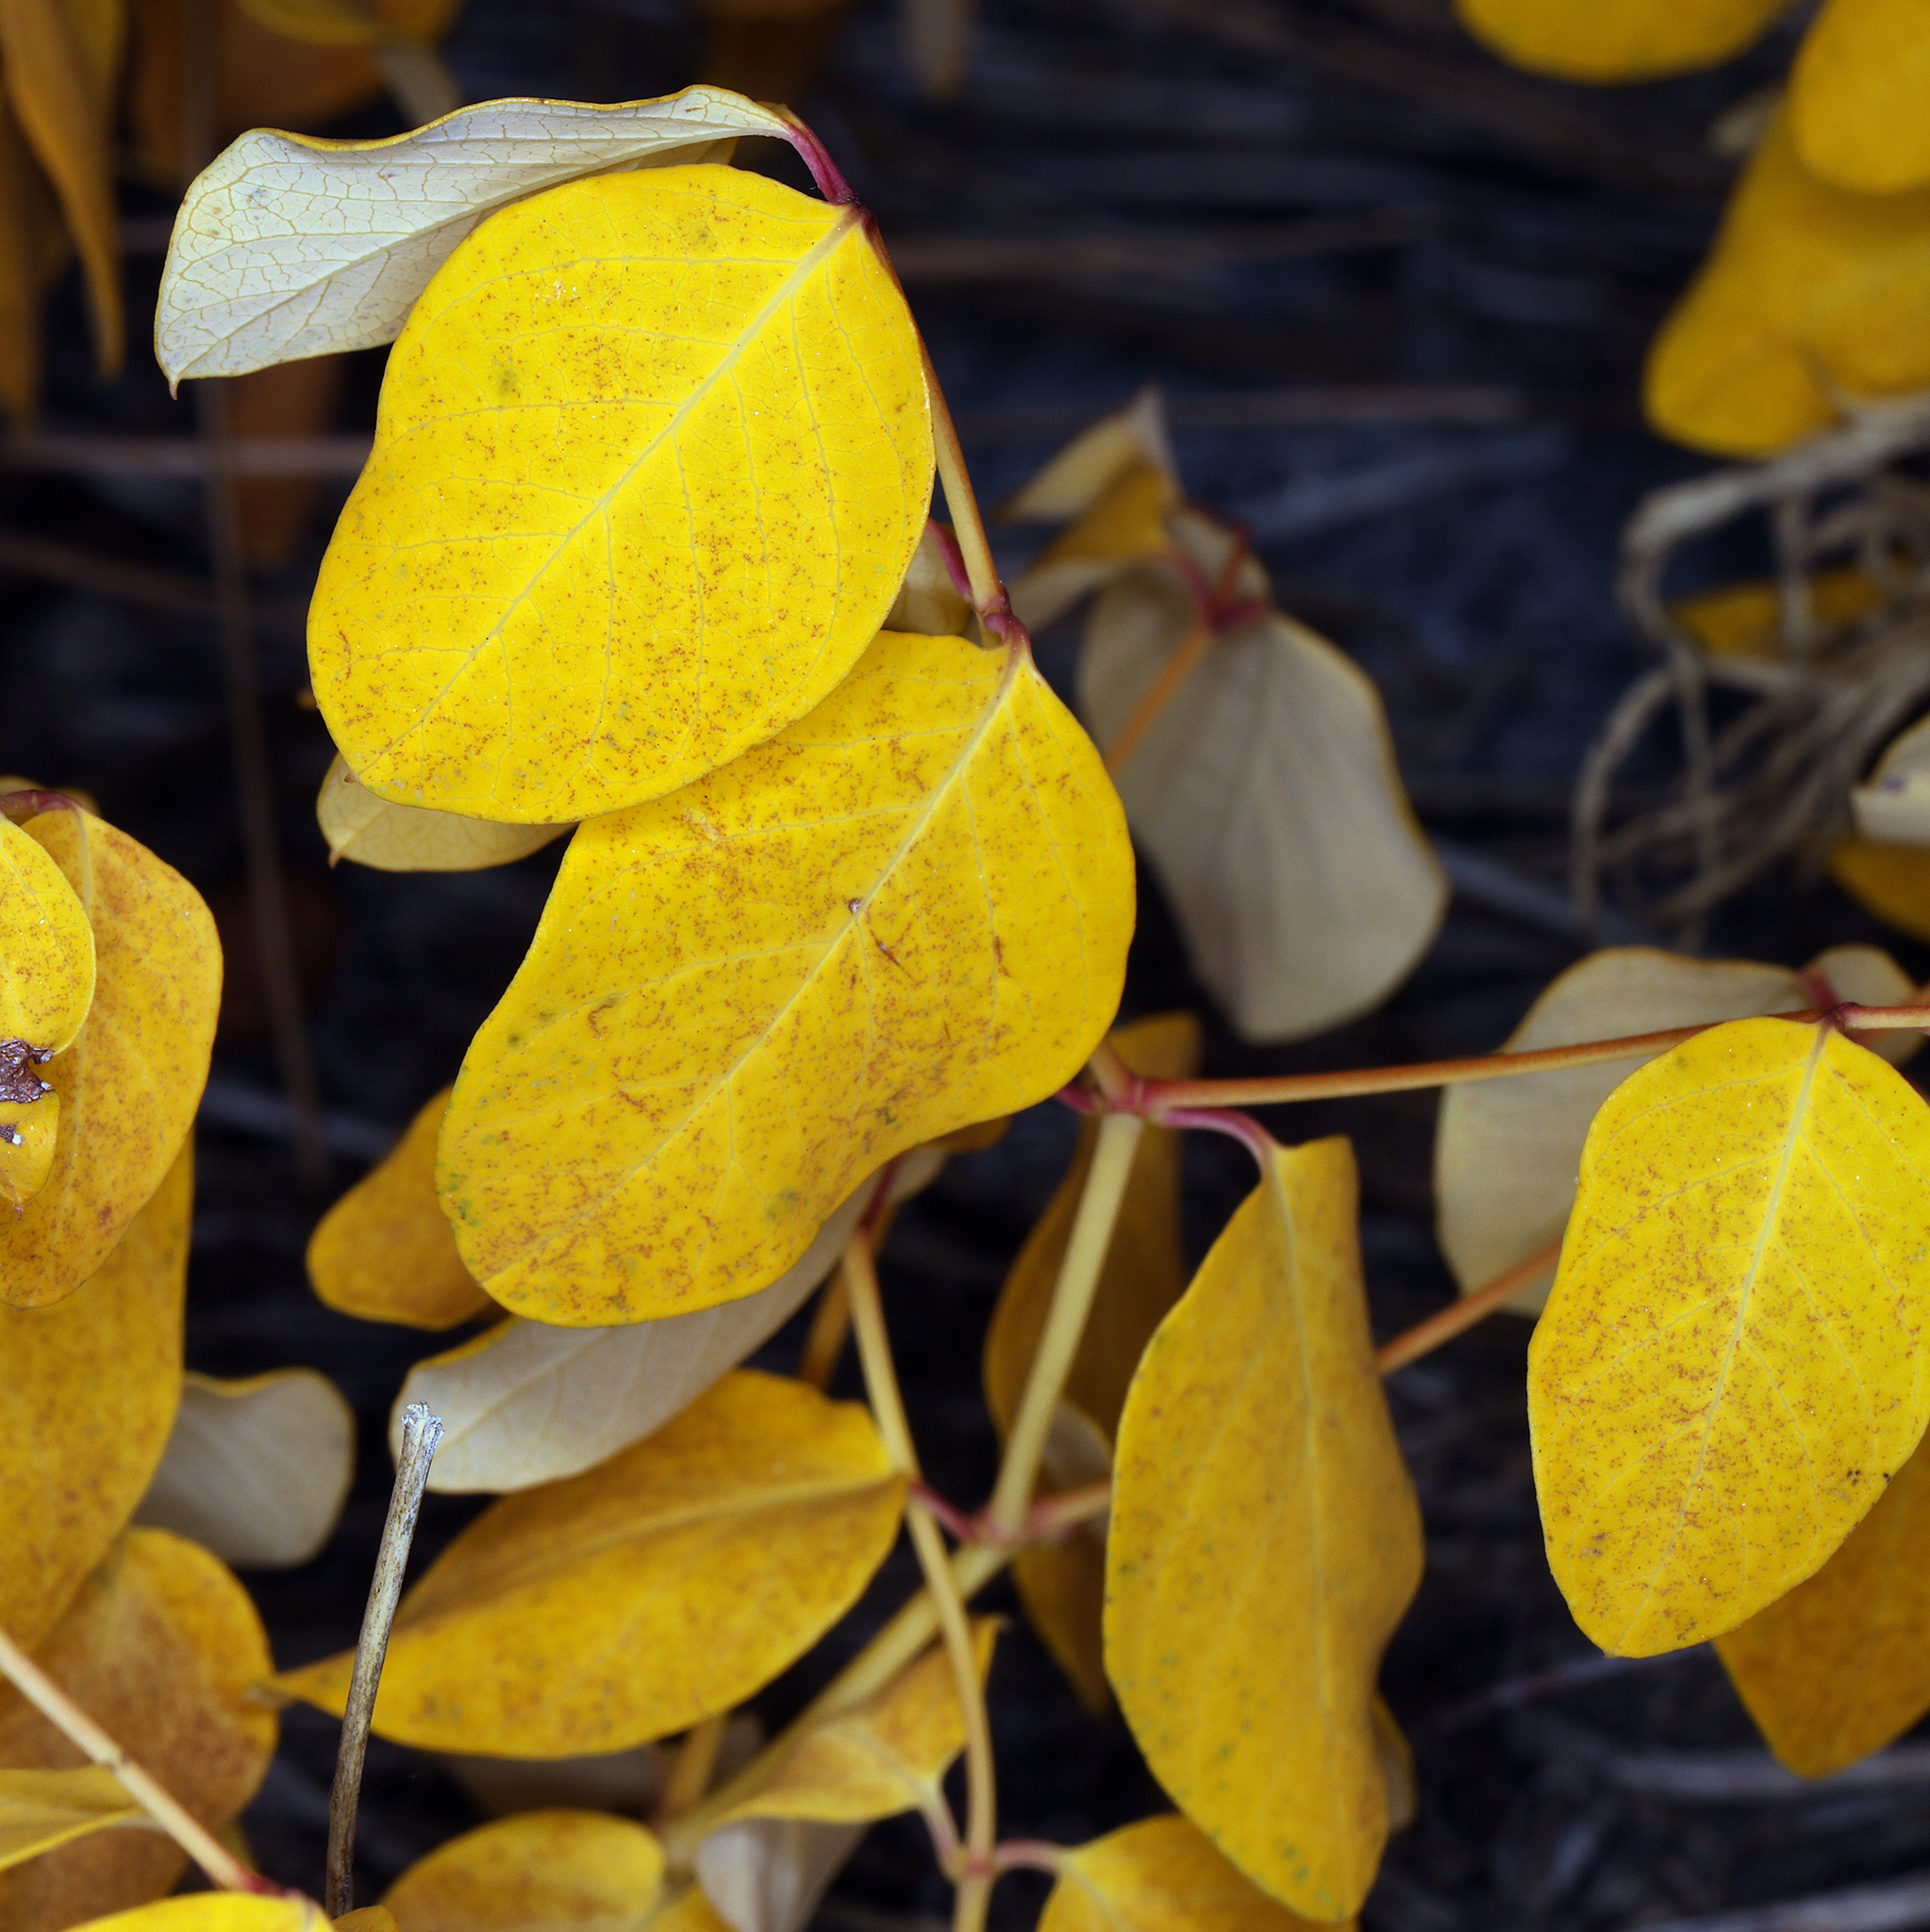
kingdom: Plantae
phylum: Tracheophyta
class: Magnoliopsida
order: Gentianales
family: Apocynaceae
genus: Apocynum
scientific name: Apocynum androsaemifolium
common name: Spreading dogbane
